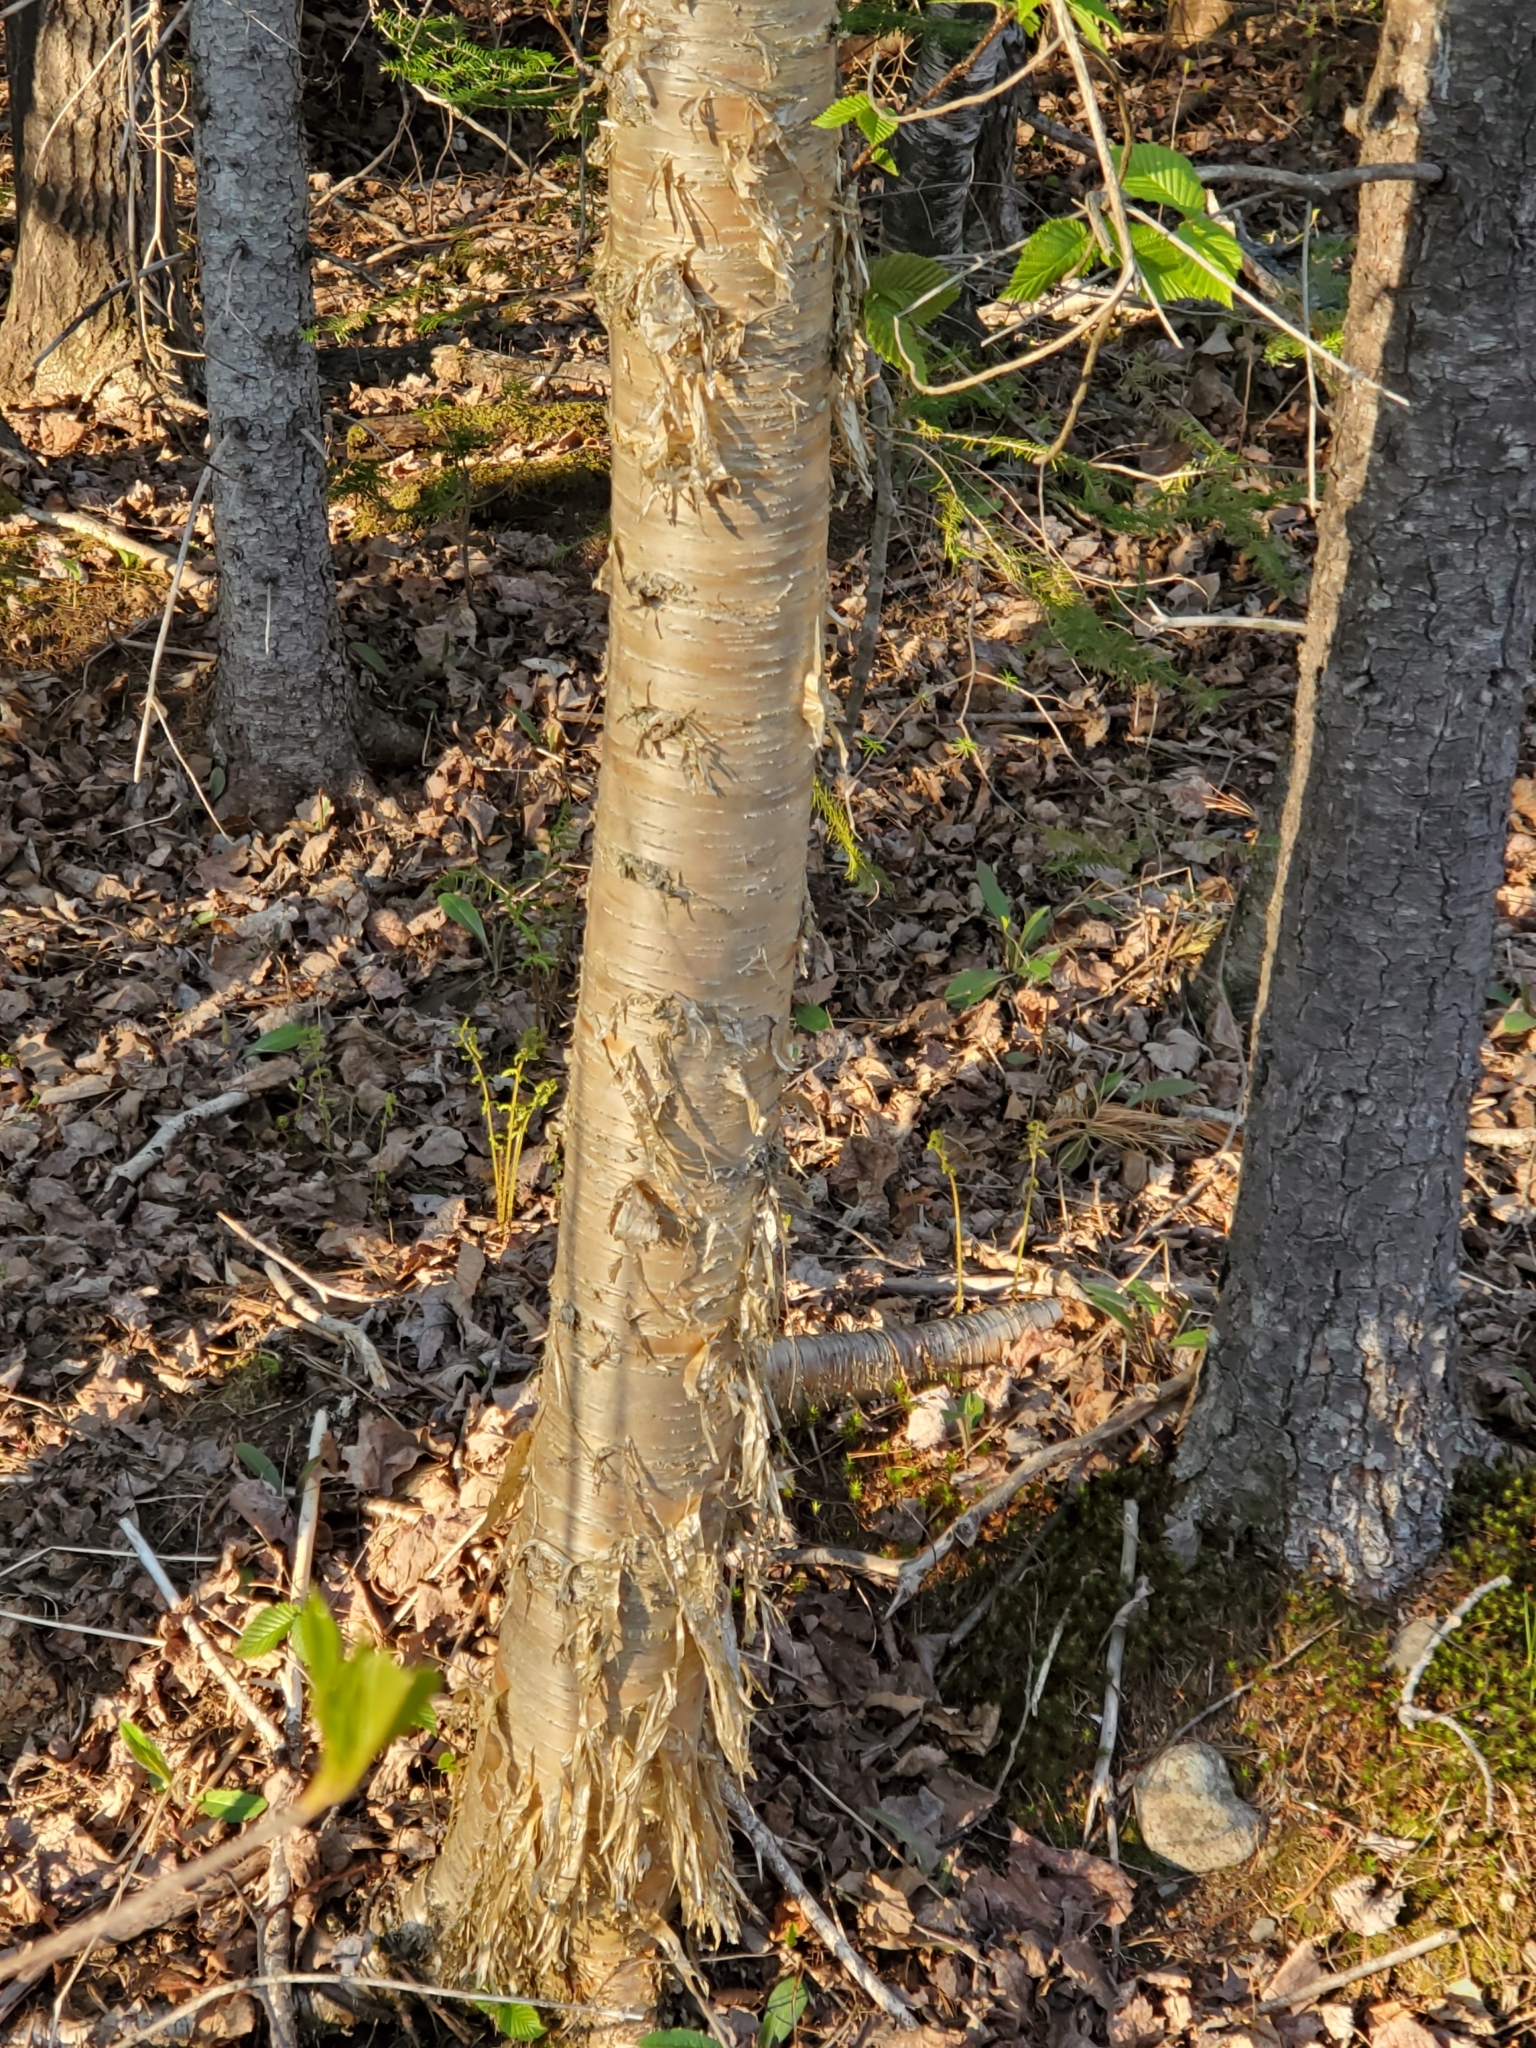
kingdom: Plantae
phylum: Tracheophyta
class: Magnoliopsida
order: Fagales
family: Betulaceae
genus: Betula
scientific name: Betula alleghaniensis
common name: Yellow birch
